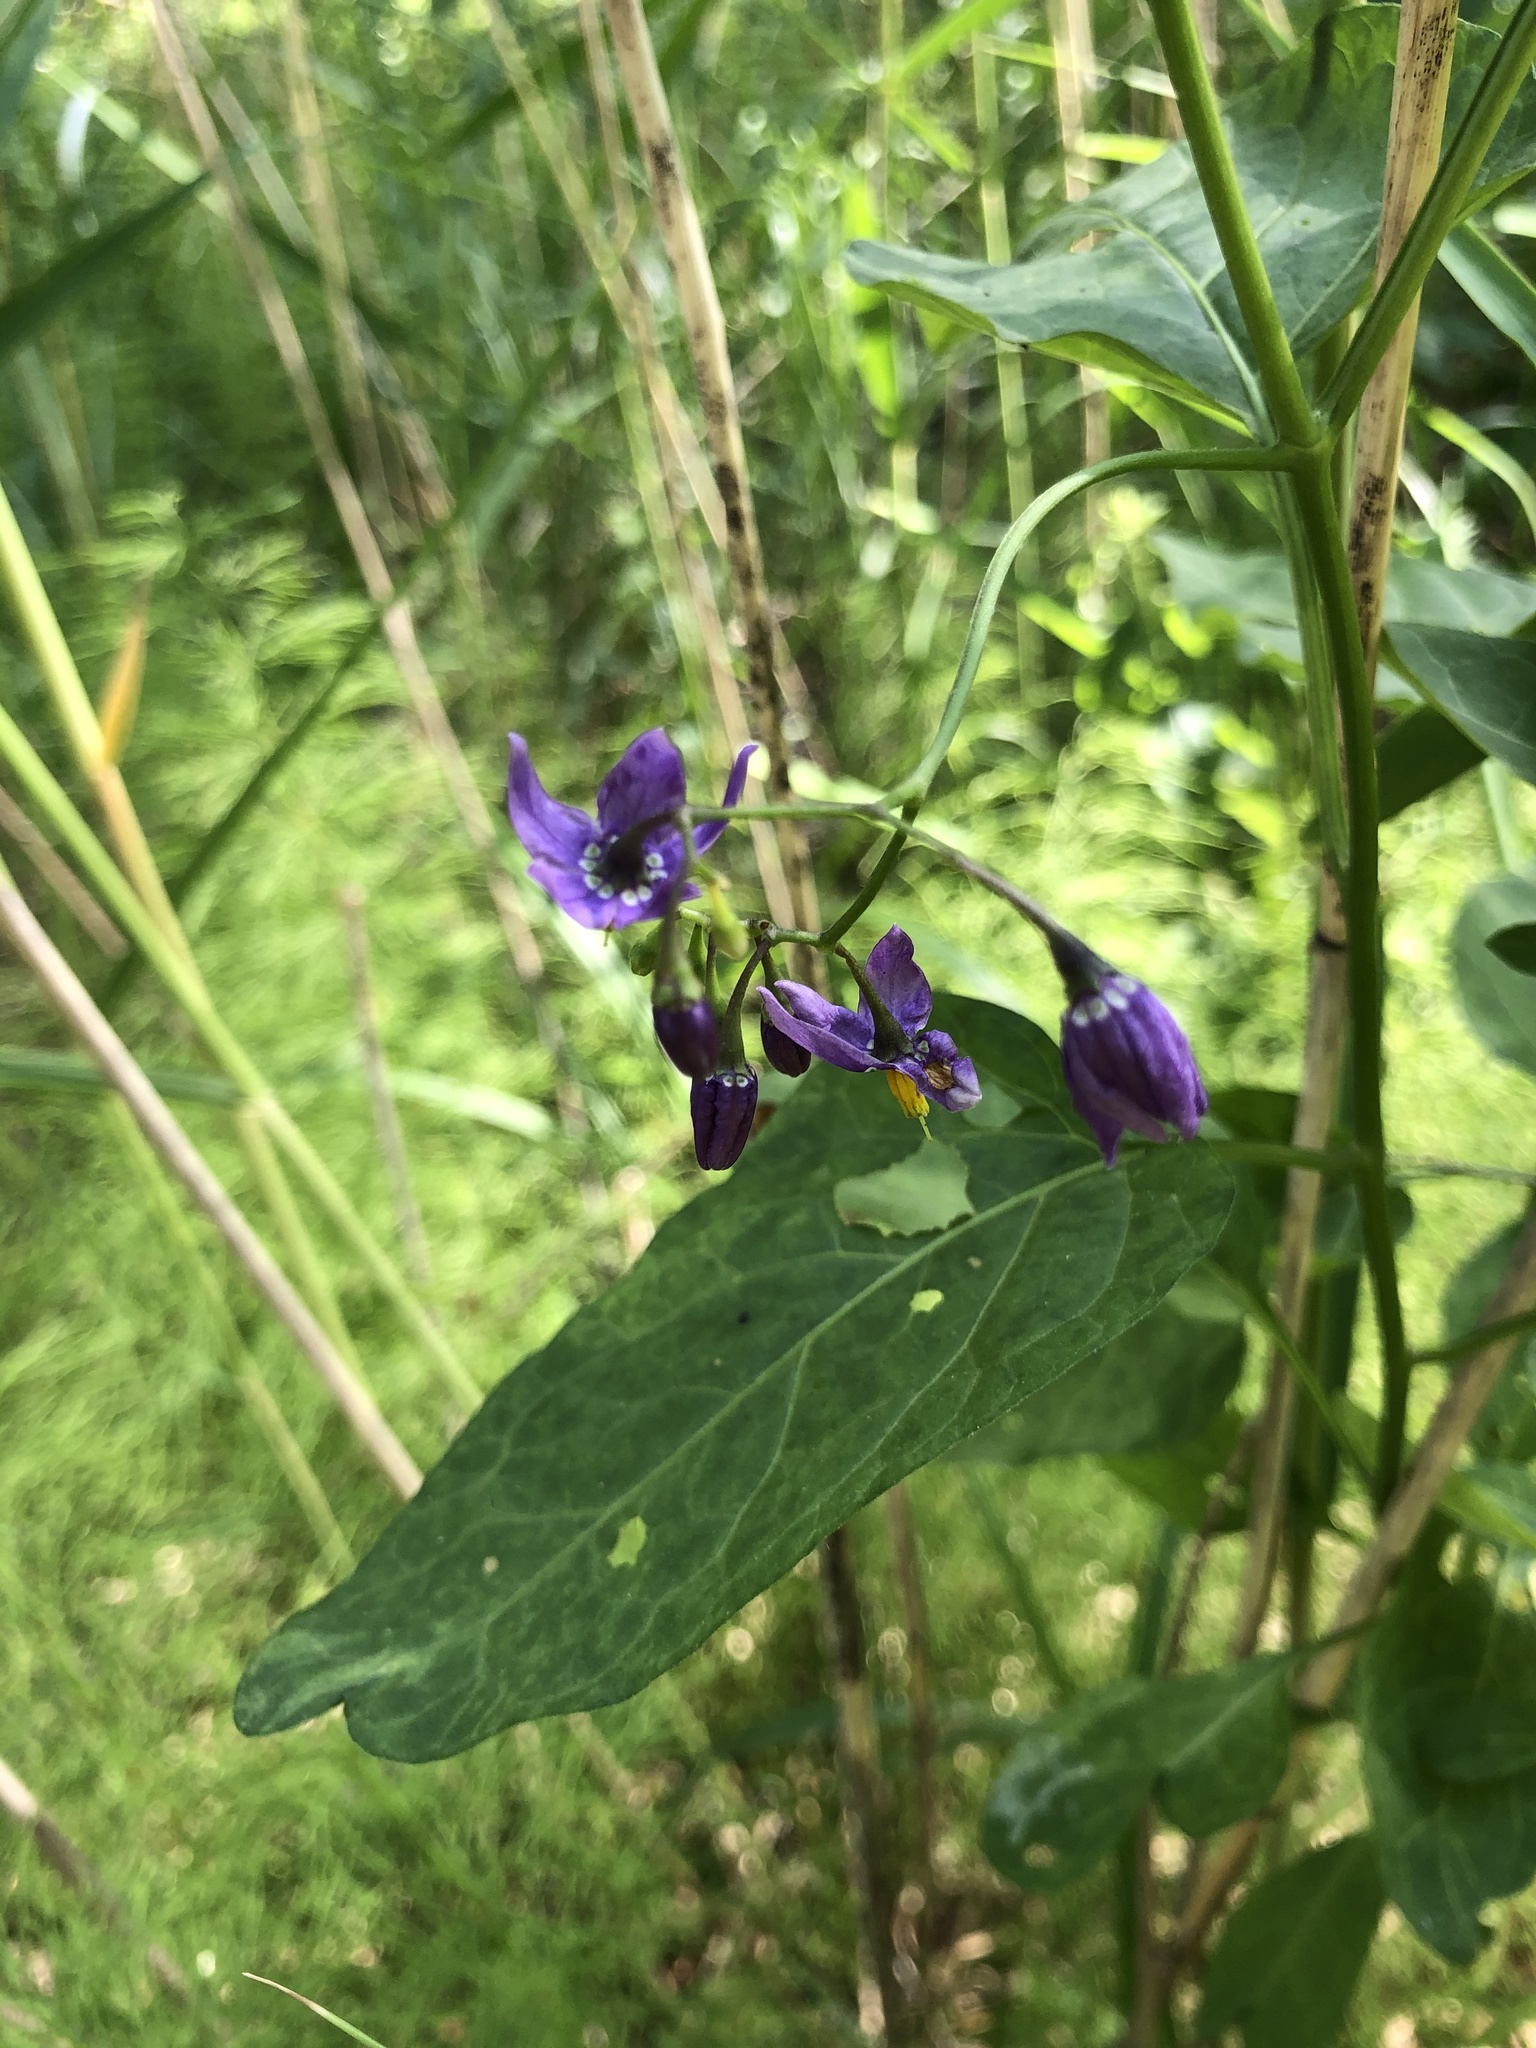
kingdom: Plantae
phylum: Tracheophyta
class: Magnoliopsida
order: Solanales
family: Solanaceae
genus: Solanum
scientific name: Solanum dulcamara
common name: Climbing nightshade
